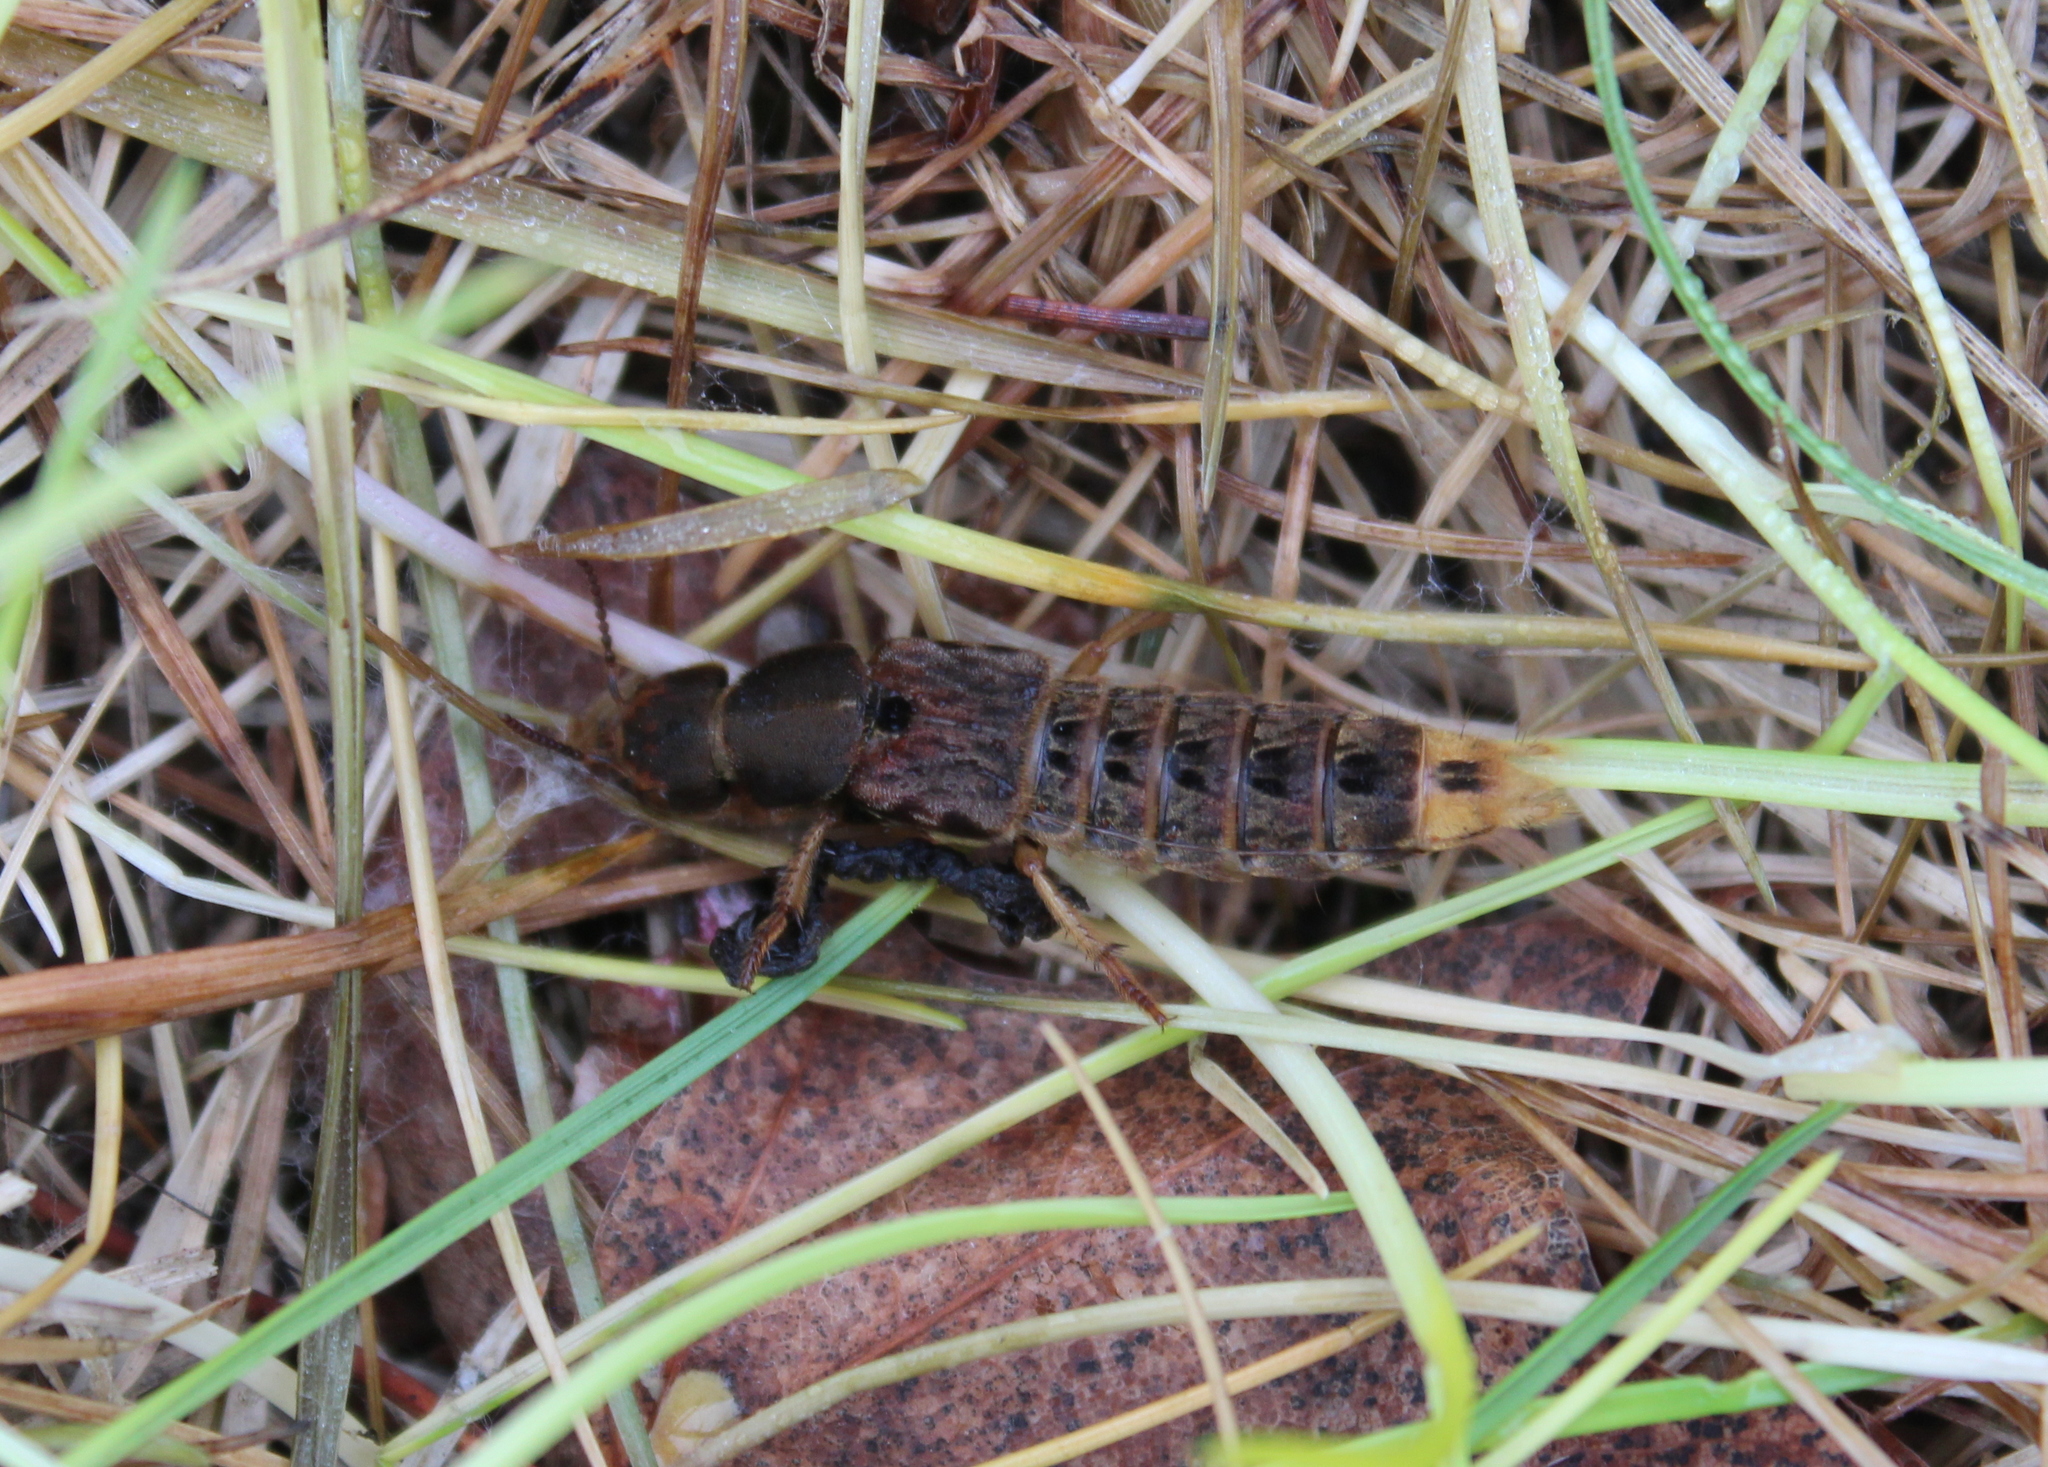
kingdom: Animalia
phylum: Arthropoda
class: Insecta
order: Coleoptera
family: Staphylinidae
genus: Platydracus
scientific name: Platydracus maculosus
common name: Brown rove beetle
